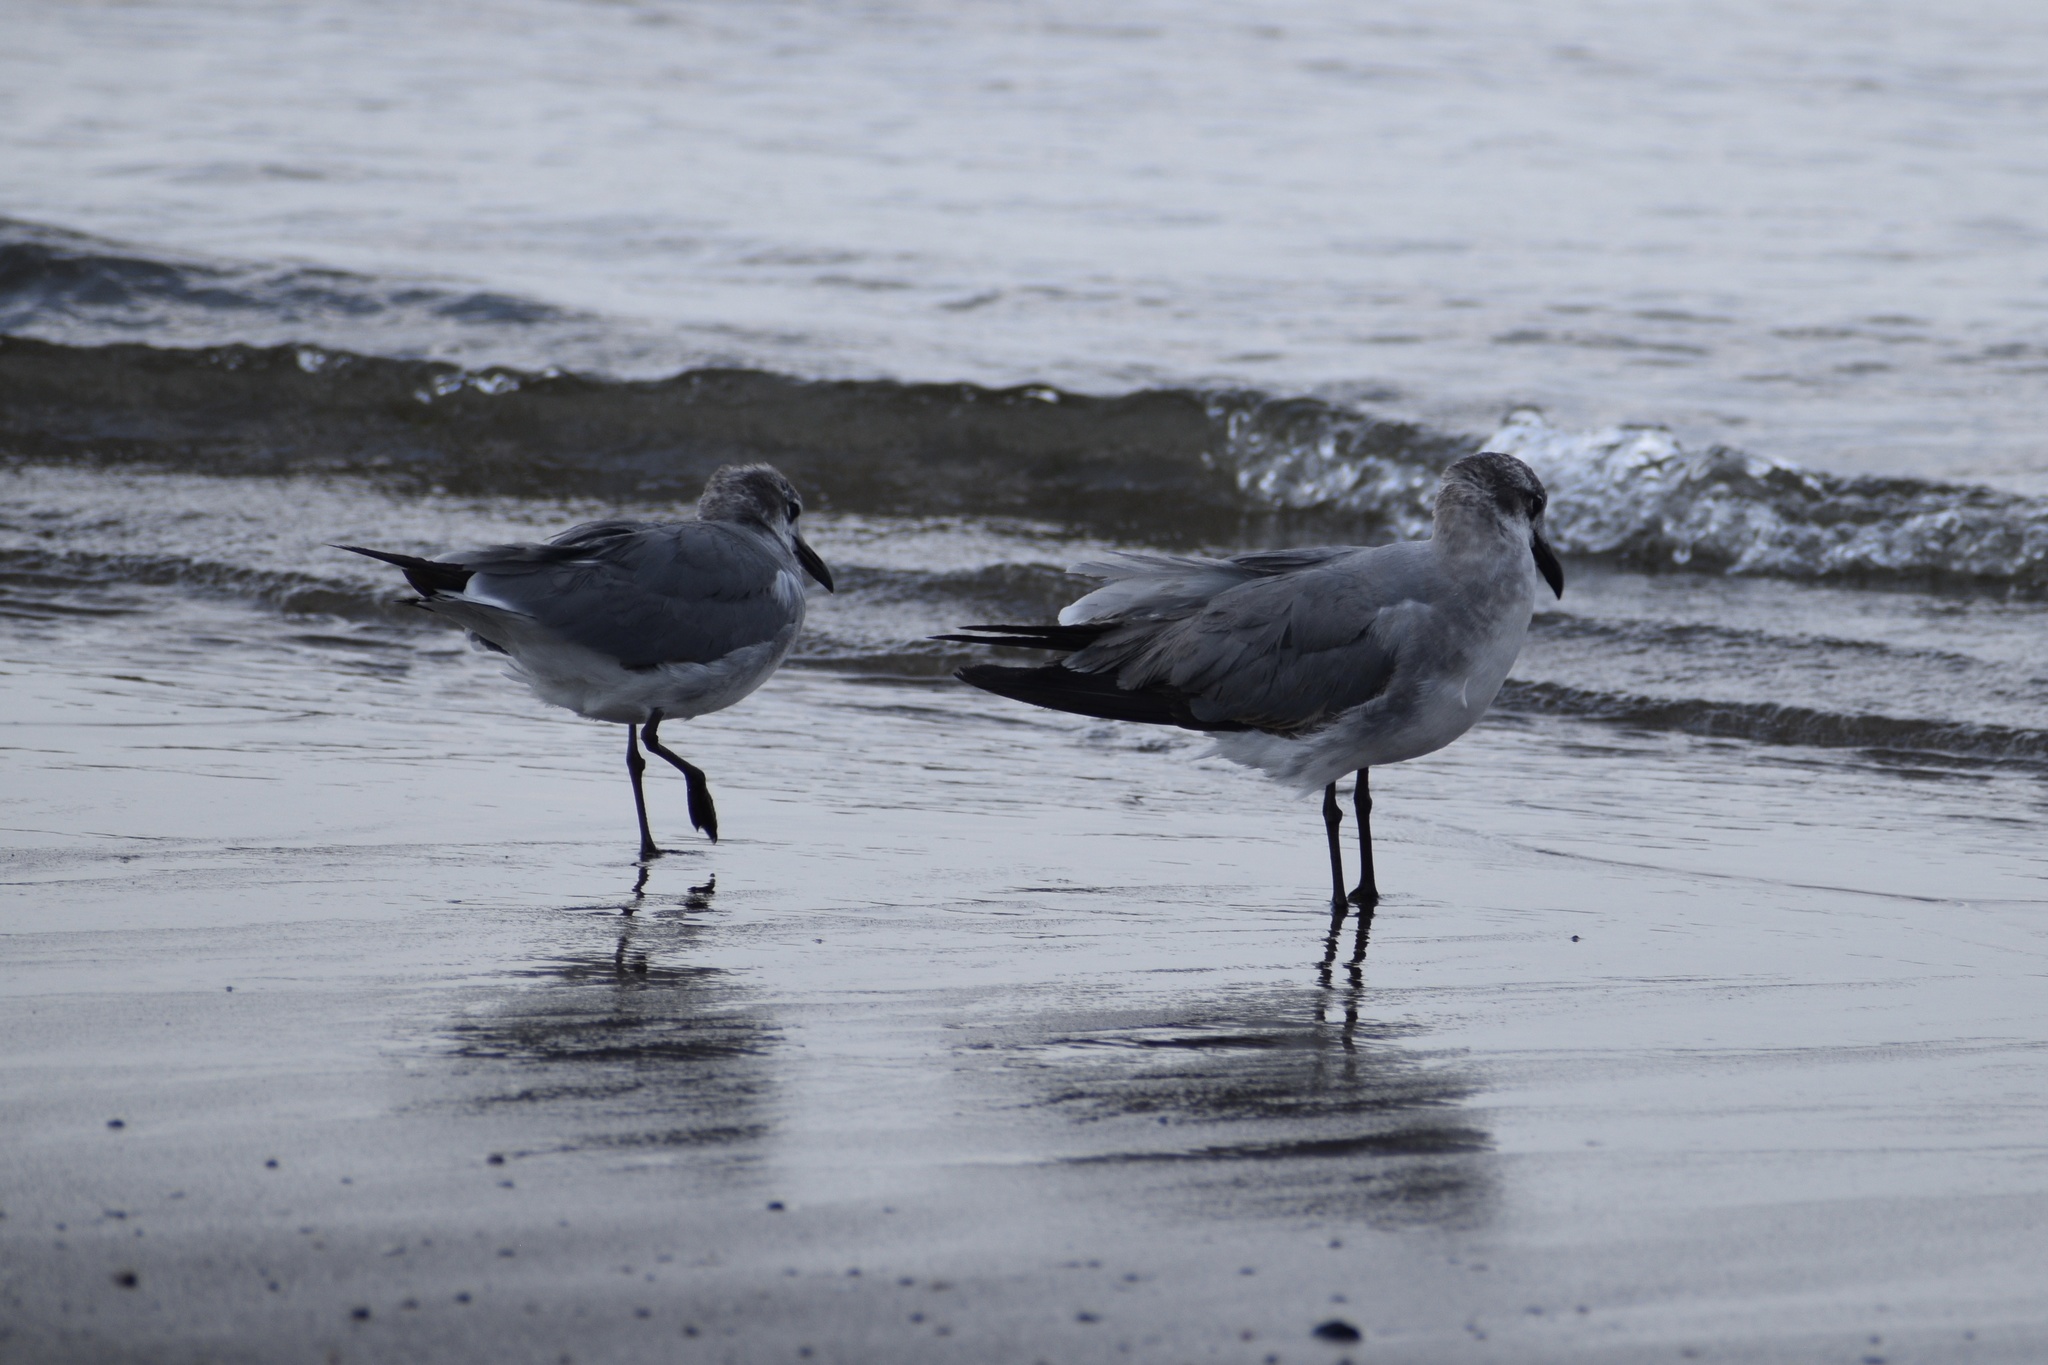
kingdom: Animalia
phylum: Chordata
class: Aves
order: Charadriiformes
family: Laridae
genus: Leucophaeus
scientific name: Leucophaeus atricilla
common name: Laughing gull
